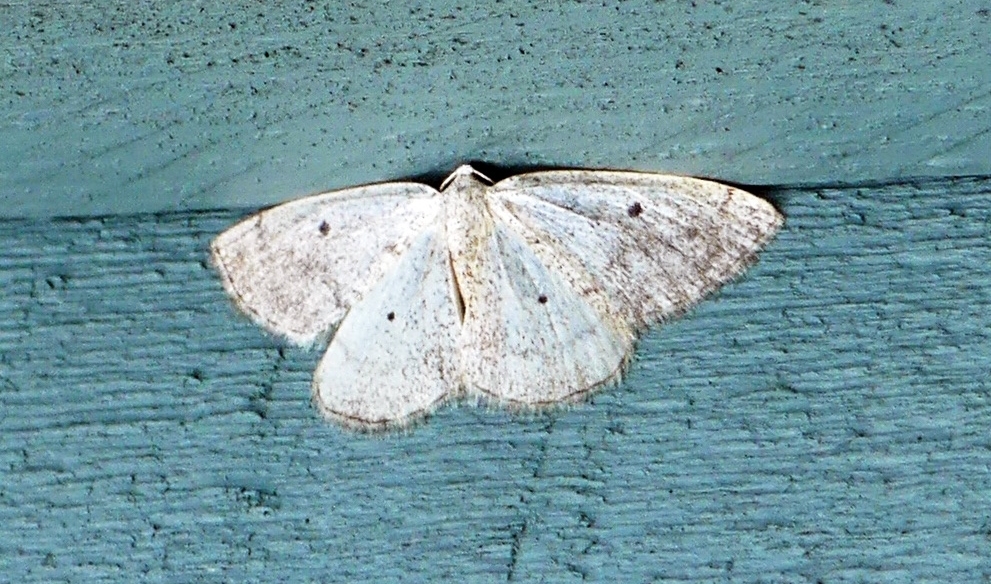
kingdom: Animalia
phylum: Arthropoda
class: Insecta
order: Lepidoptera
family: Geometridae
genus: Lomographa
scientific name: Lomographa glomeraria
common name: Gray spring moth
